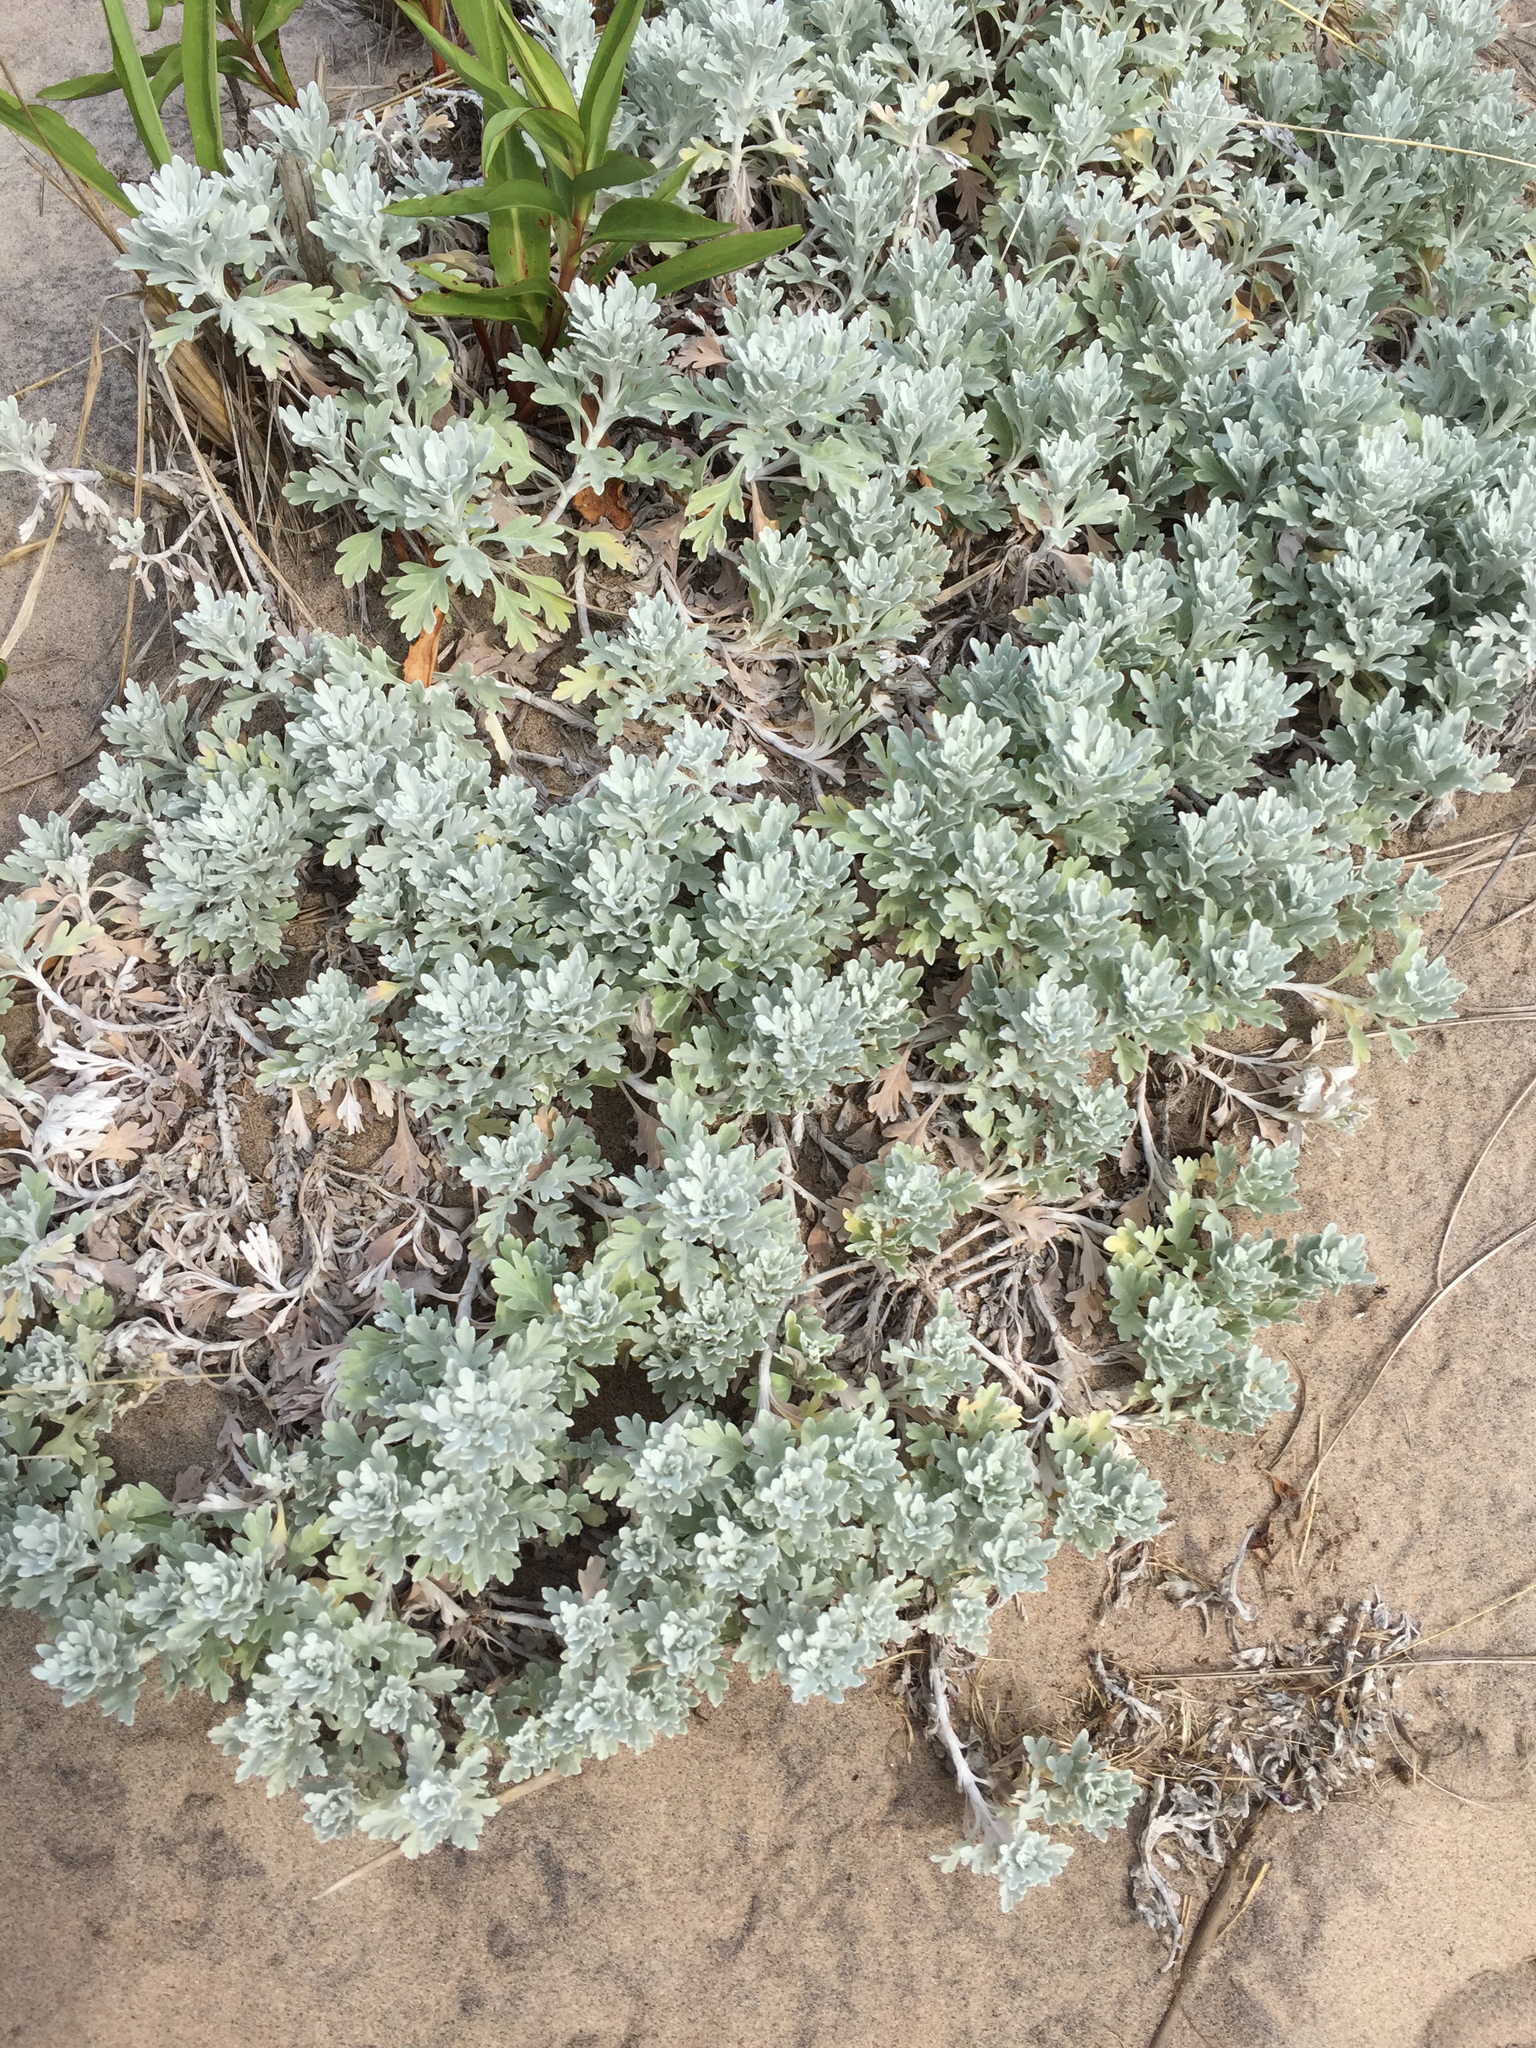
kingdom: Plantae
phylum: Tracheophyta
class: Magnoliopsida
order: Asterales
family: Asteraceae
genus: Artemisia
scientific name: Artemisia stelleriana
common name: Beach wormwood
